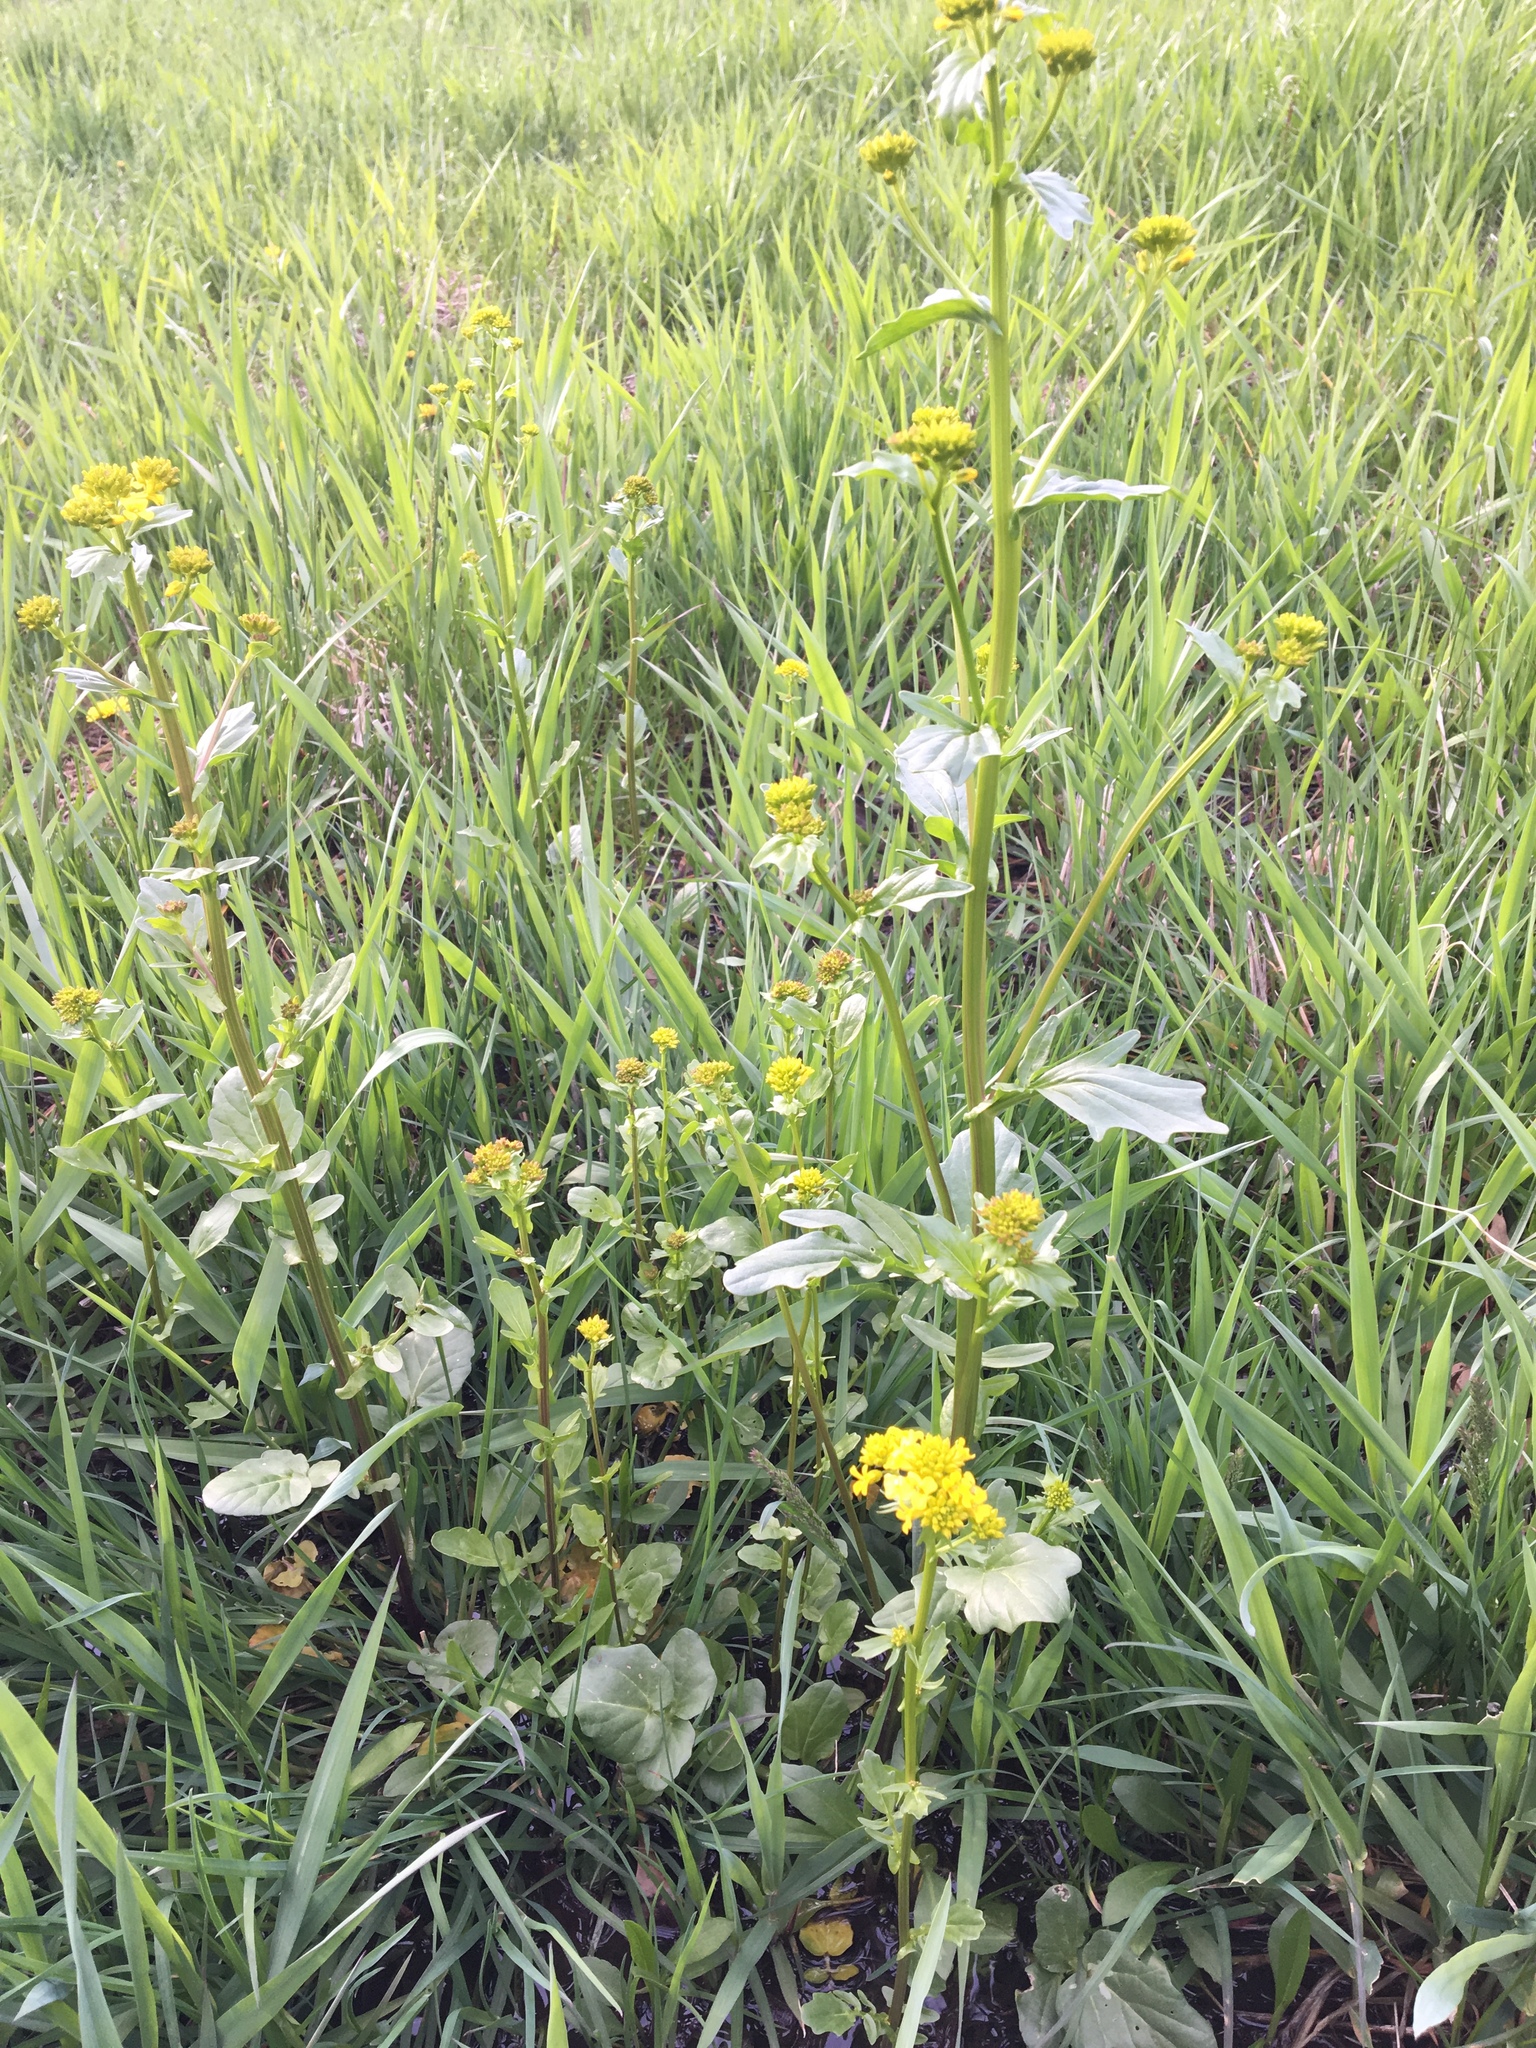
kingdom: Plantae
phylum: Tracheophyta
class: Magnoliopsida
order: Brassicales
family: Brassicaceae
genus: Barbarea
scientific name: Barbarea vulgaris
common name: Cressy-greens
